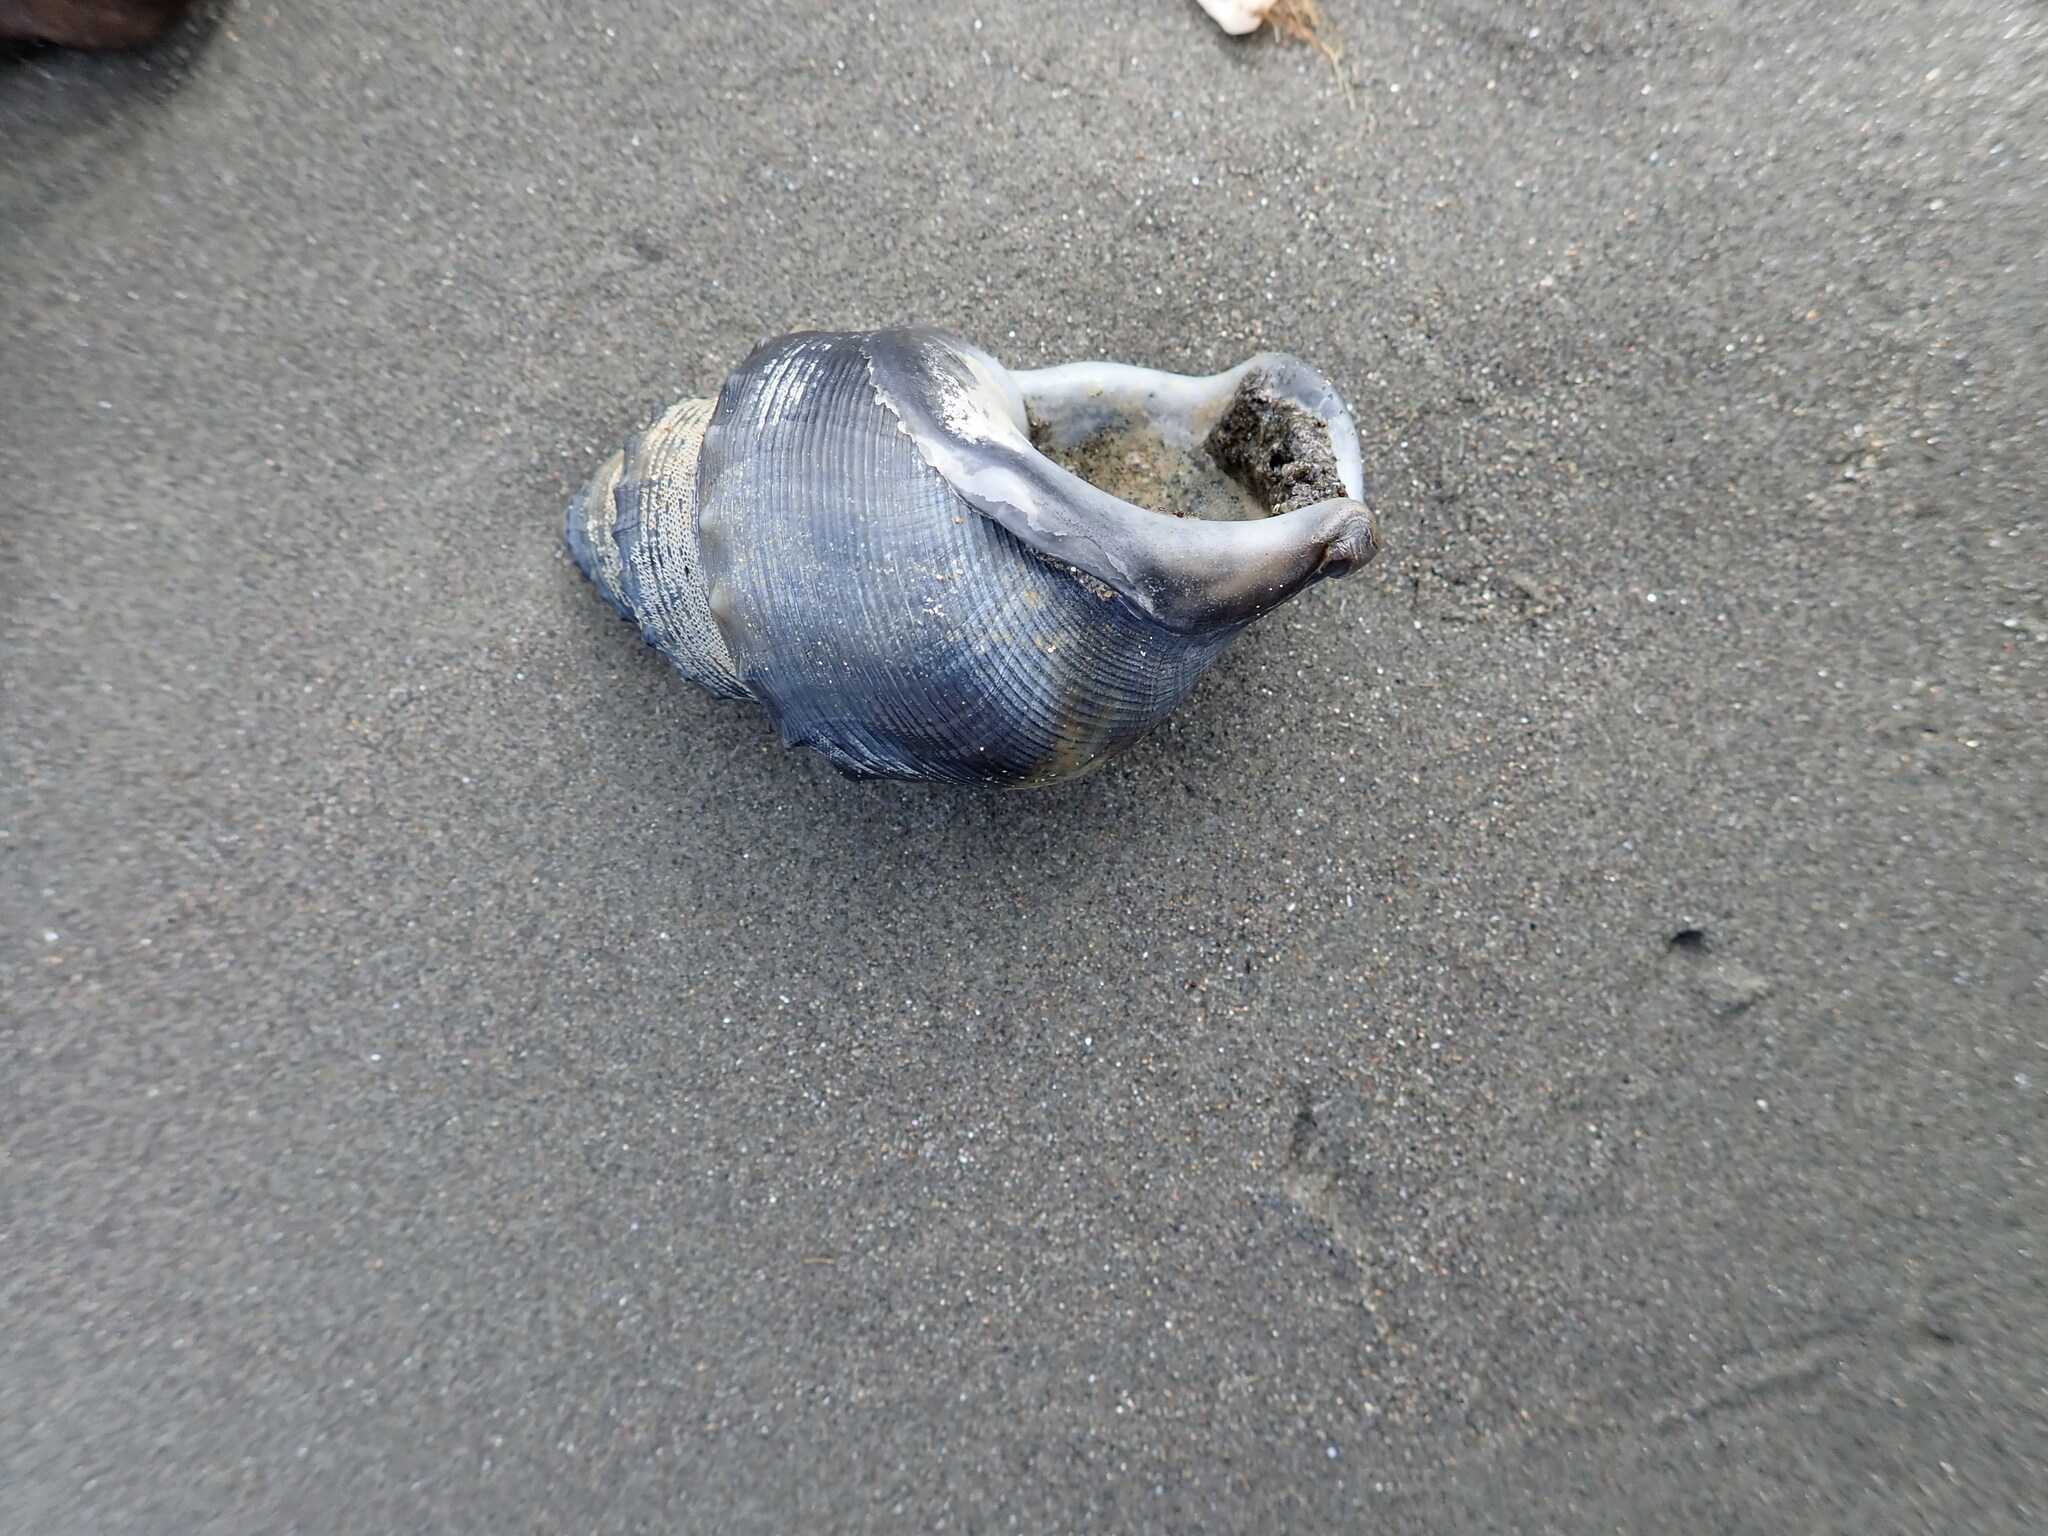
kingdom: Animalia
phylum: Mollusca
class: Gastropoda
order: Littorinimorpha
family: Struthiolariidae
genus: Struthiolaria
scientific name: Struthiolaria papulosa
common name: Large ostrich foot
